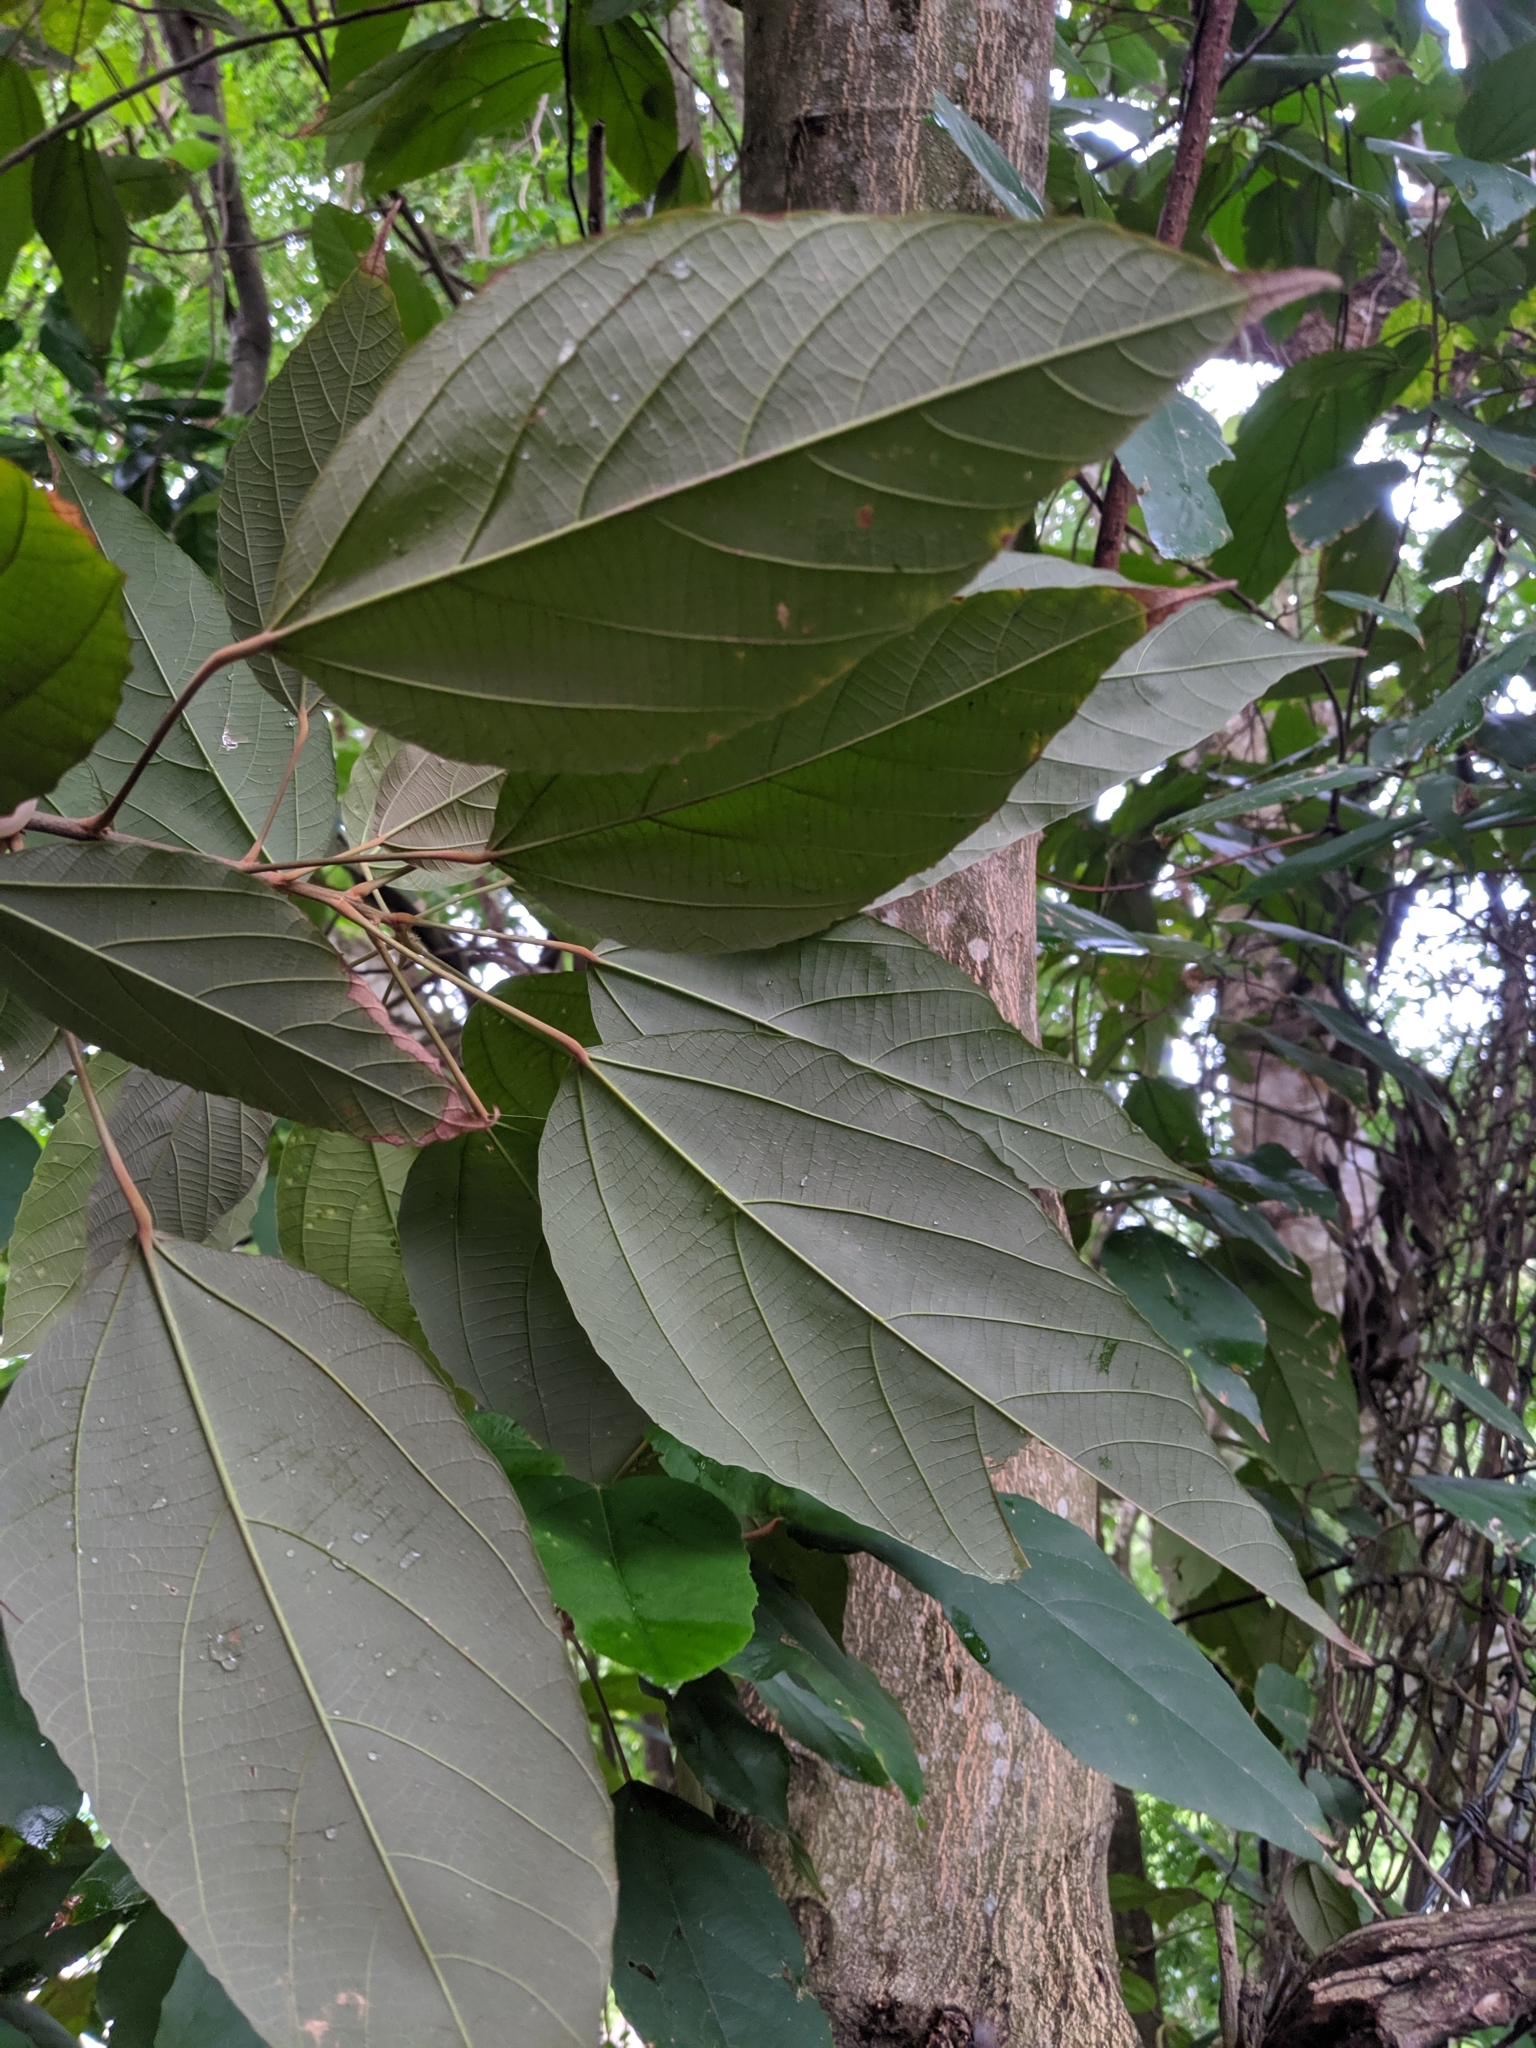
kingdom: Plantae
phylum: Tracheophyta
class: Magnoliopsida
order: Malpighiales
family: Euphorbiaceae
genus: Mallotus
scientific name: Mallotus philippensis
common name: Kamala tree
